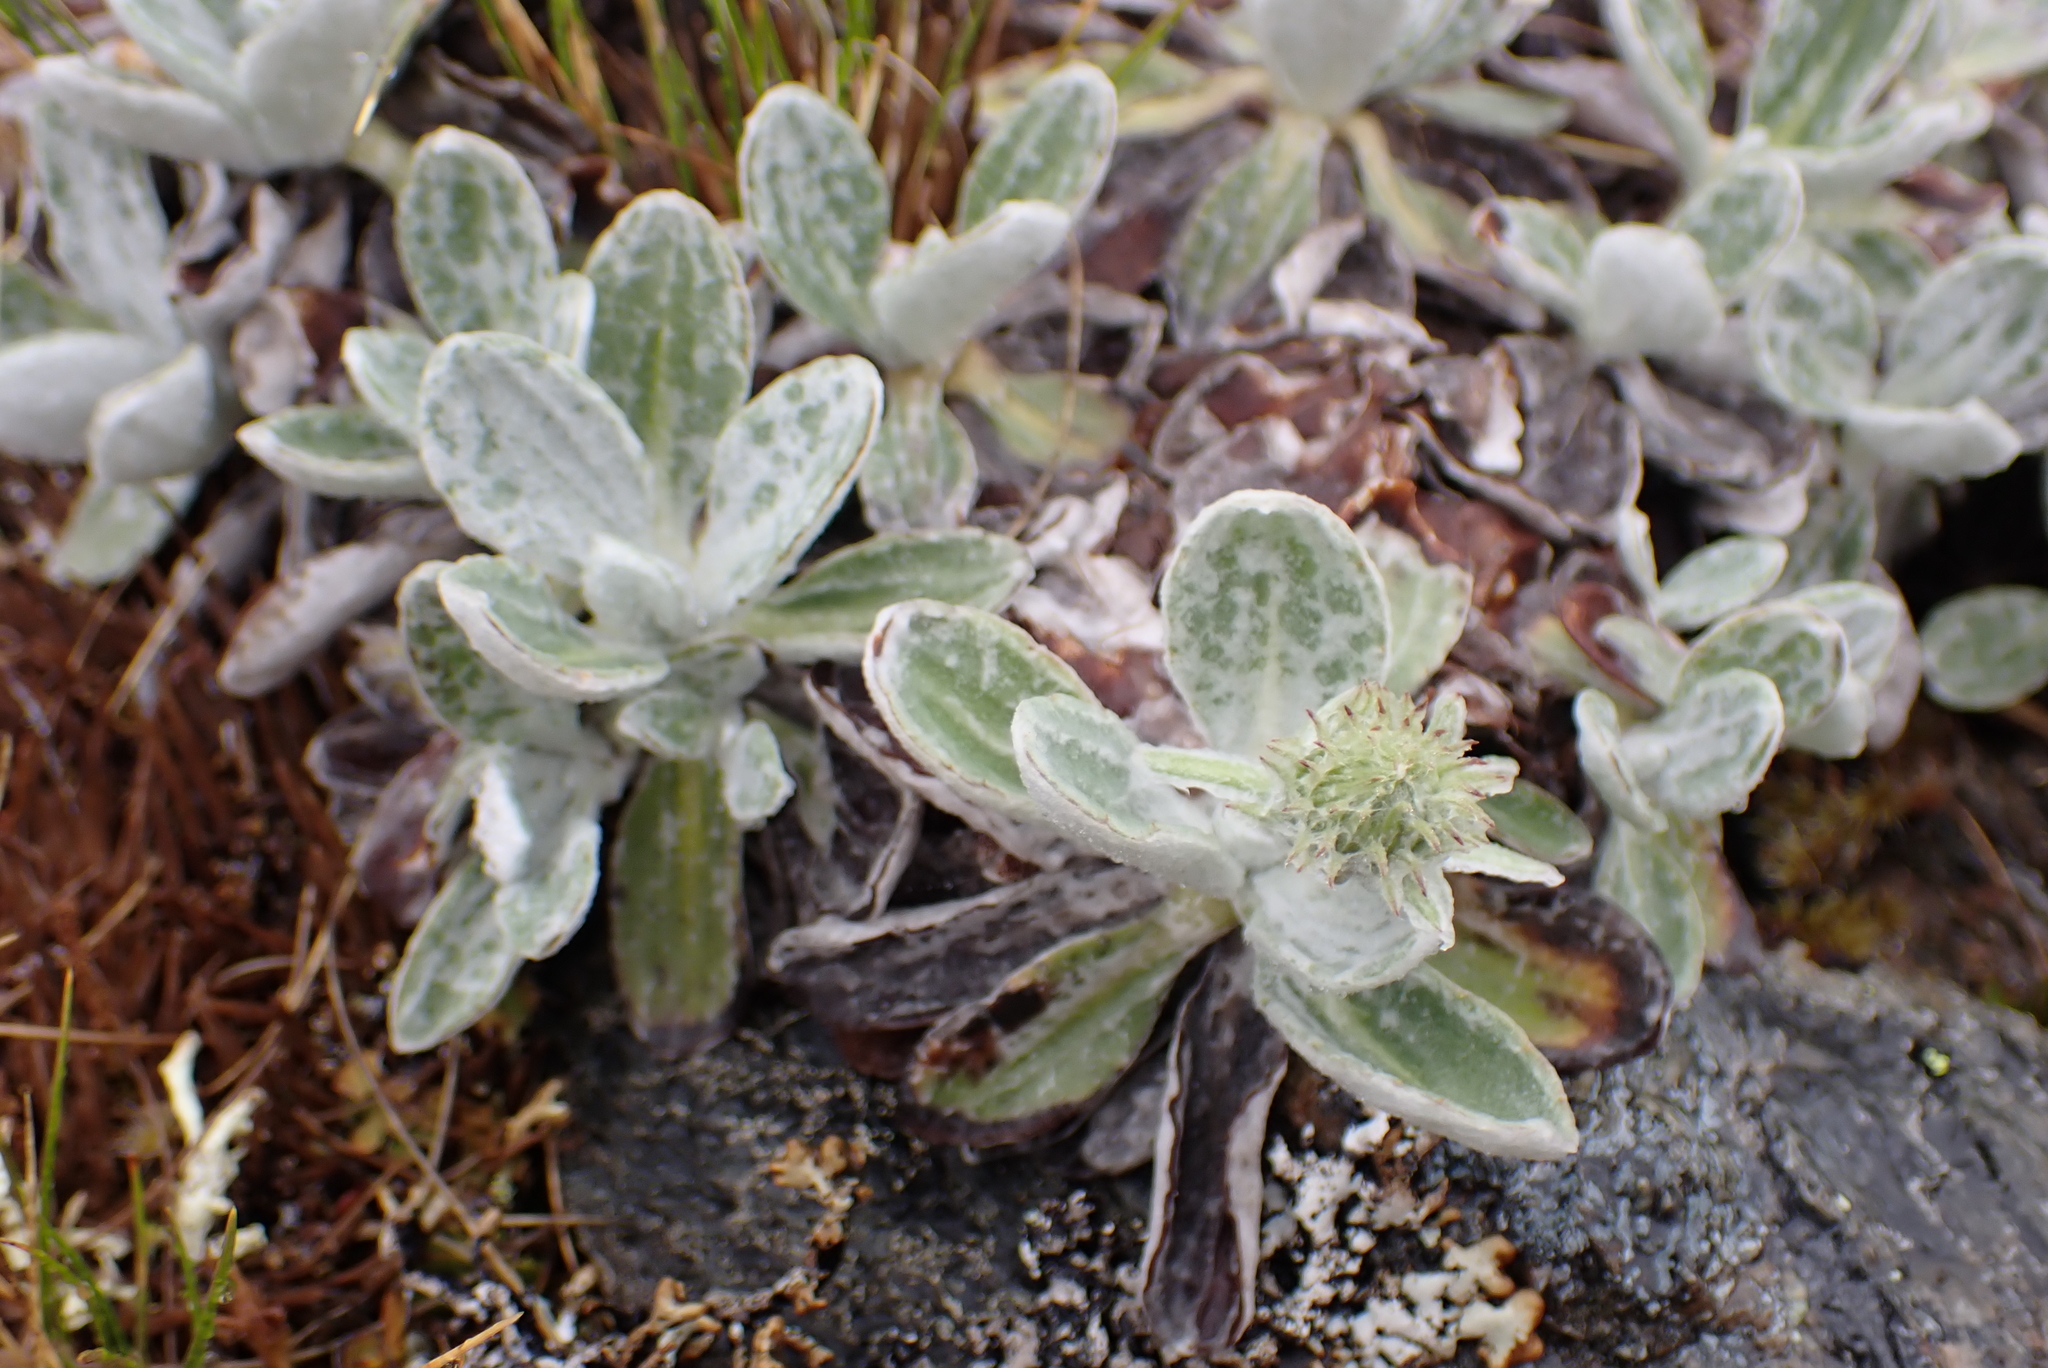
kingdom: Plantae
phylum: Tracheophyta
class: Magnoliopsida
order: Asterales
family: Asteraceae
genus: Celmisia
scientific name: Celmisia discolor
